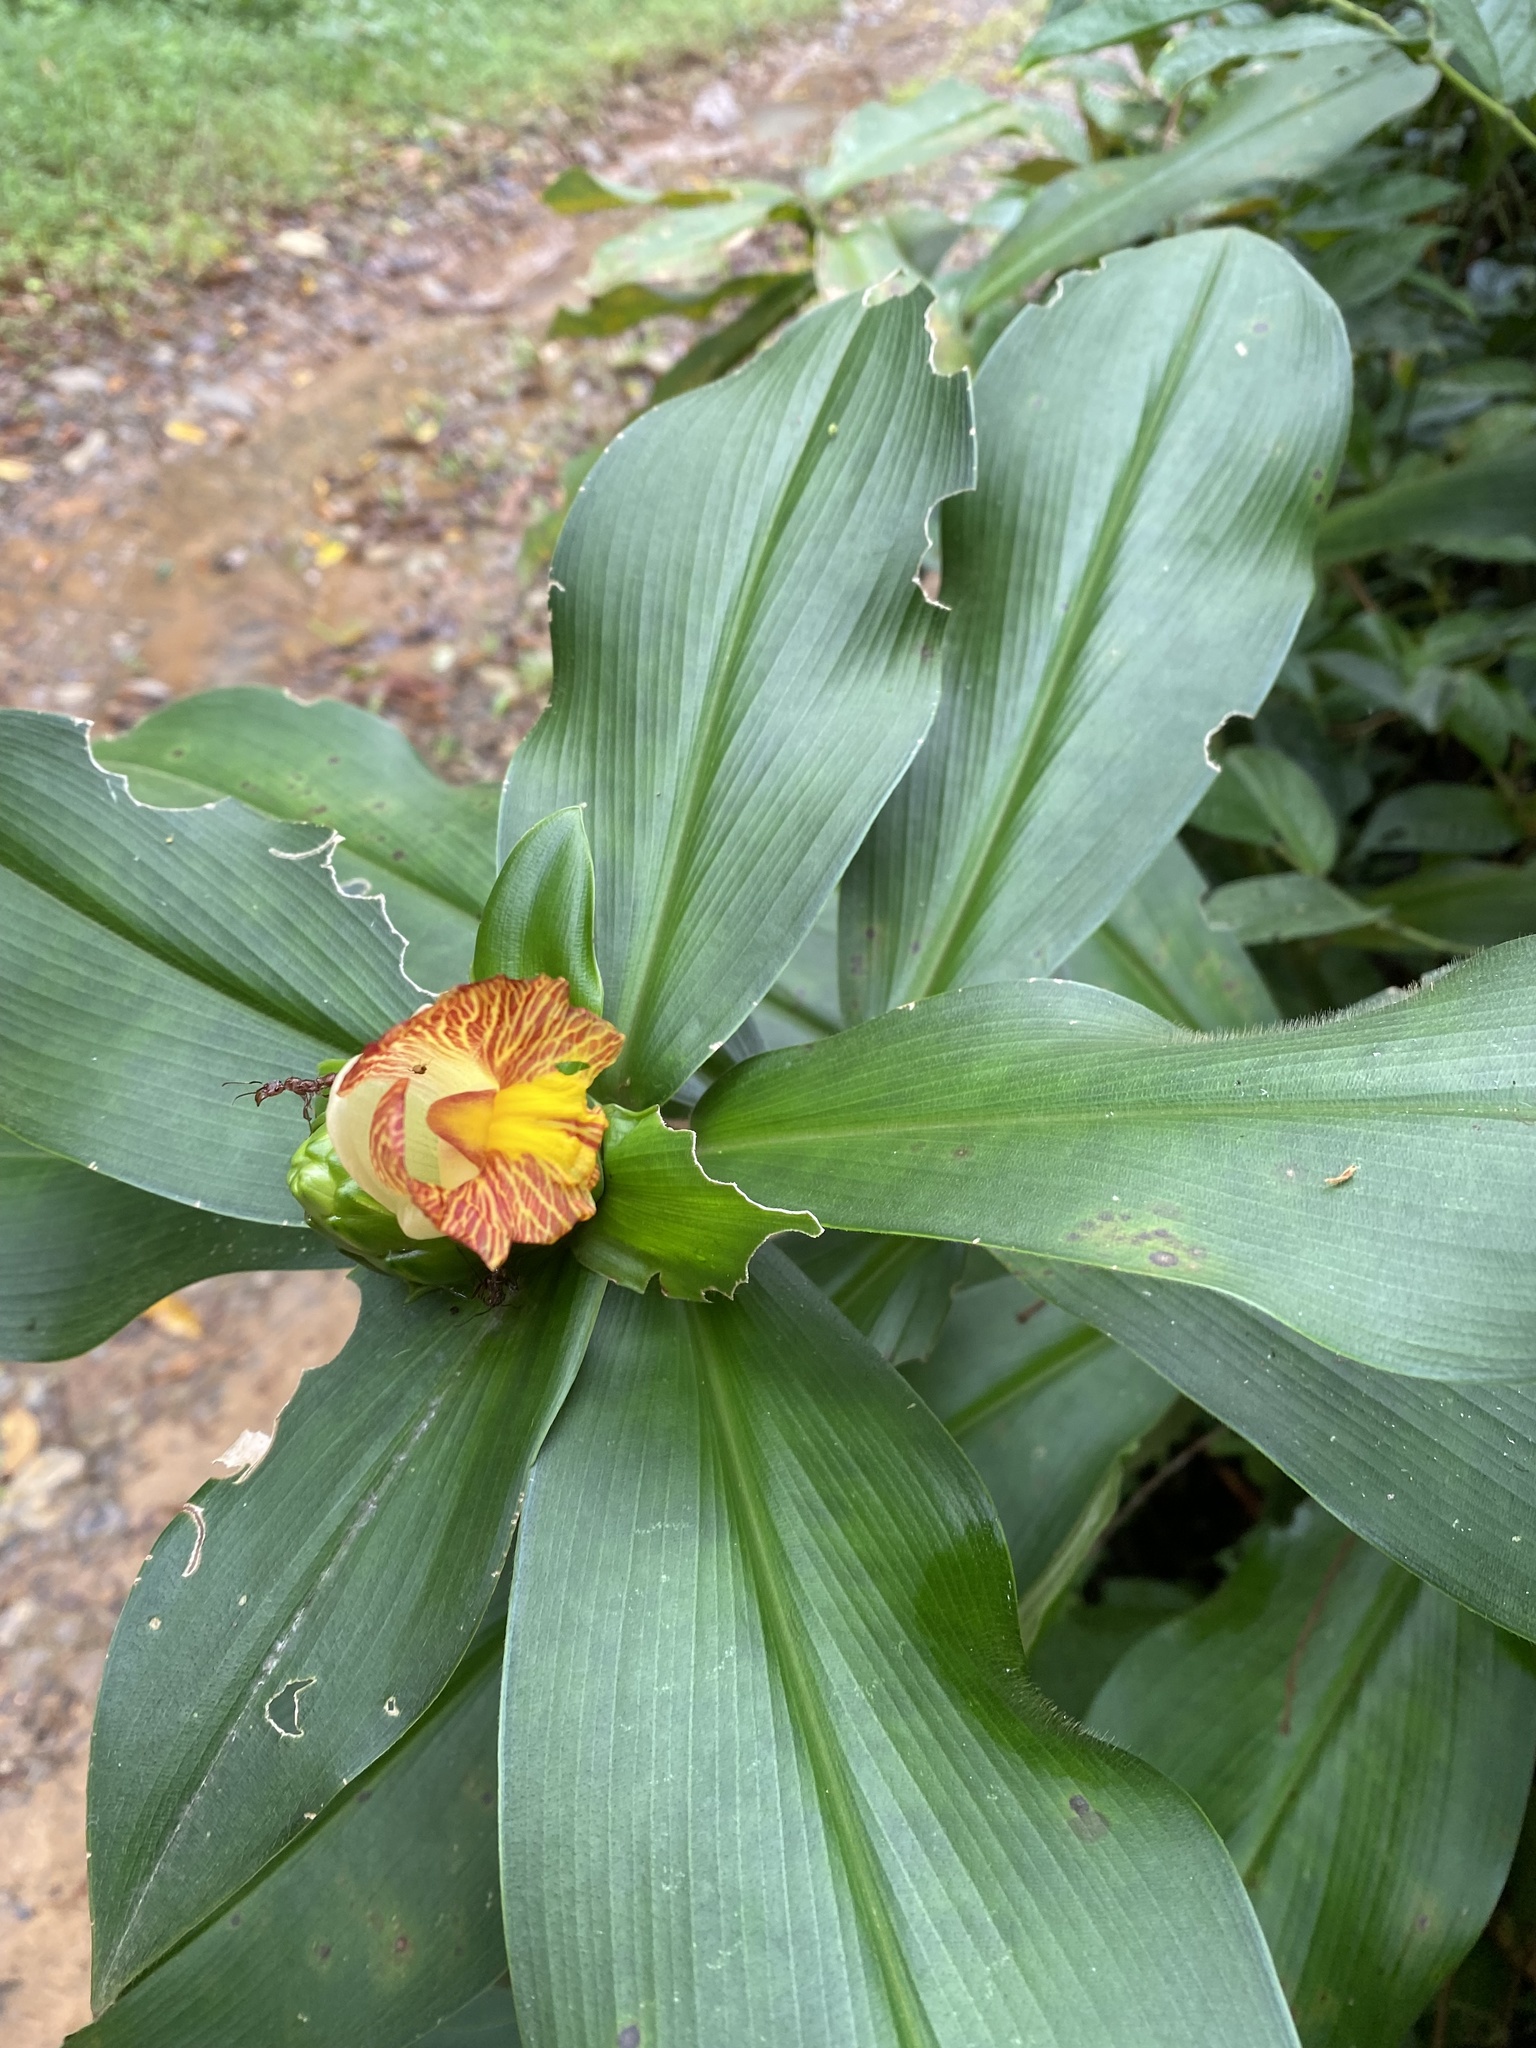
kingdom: Plantae
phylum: Tracheophyta
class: Liliopsida
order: Zingiberales
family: Costaceae
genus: Costus
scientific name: Costus pictus
